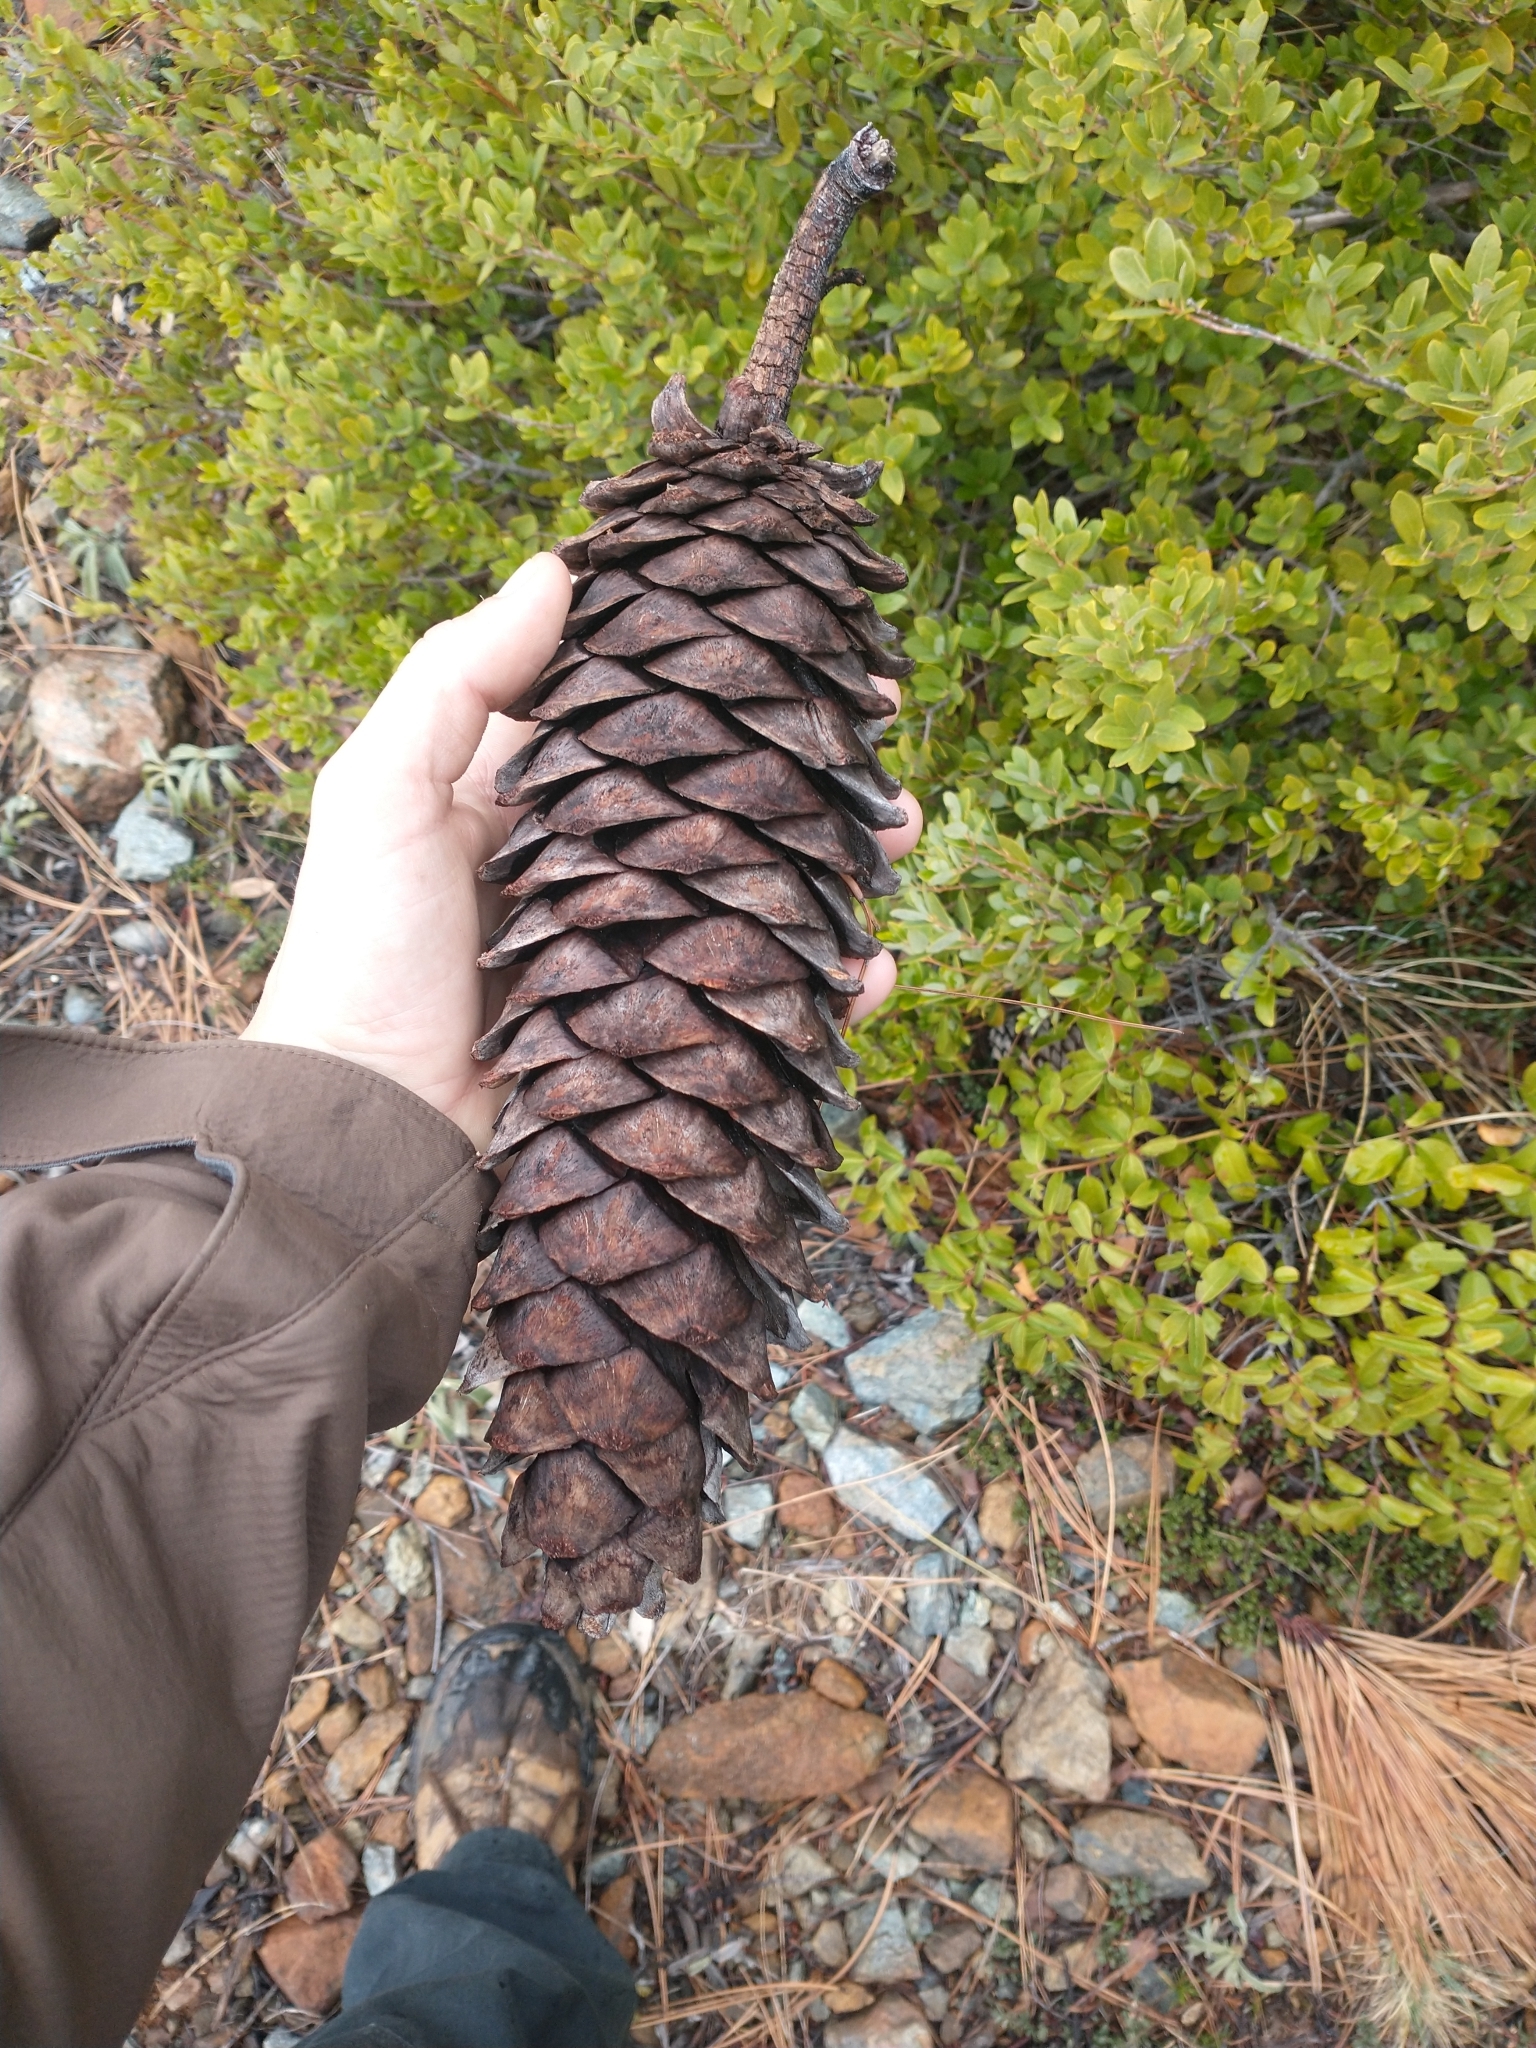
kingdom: Plantae
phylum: Tracheophyta
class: Pinopsida
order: Pinales
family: Pinaceae
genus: Pinus
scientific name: Pinus lambertiana
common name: Sugar pine
